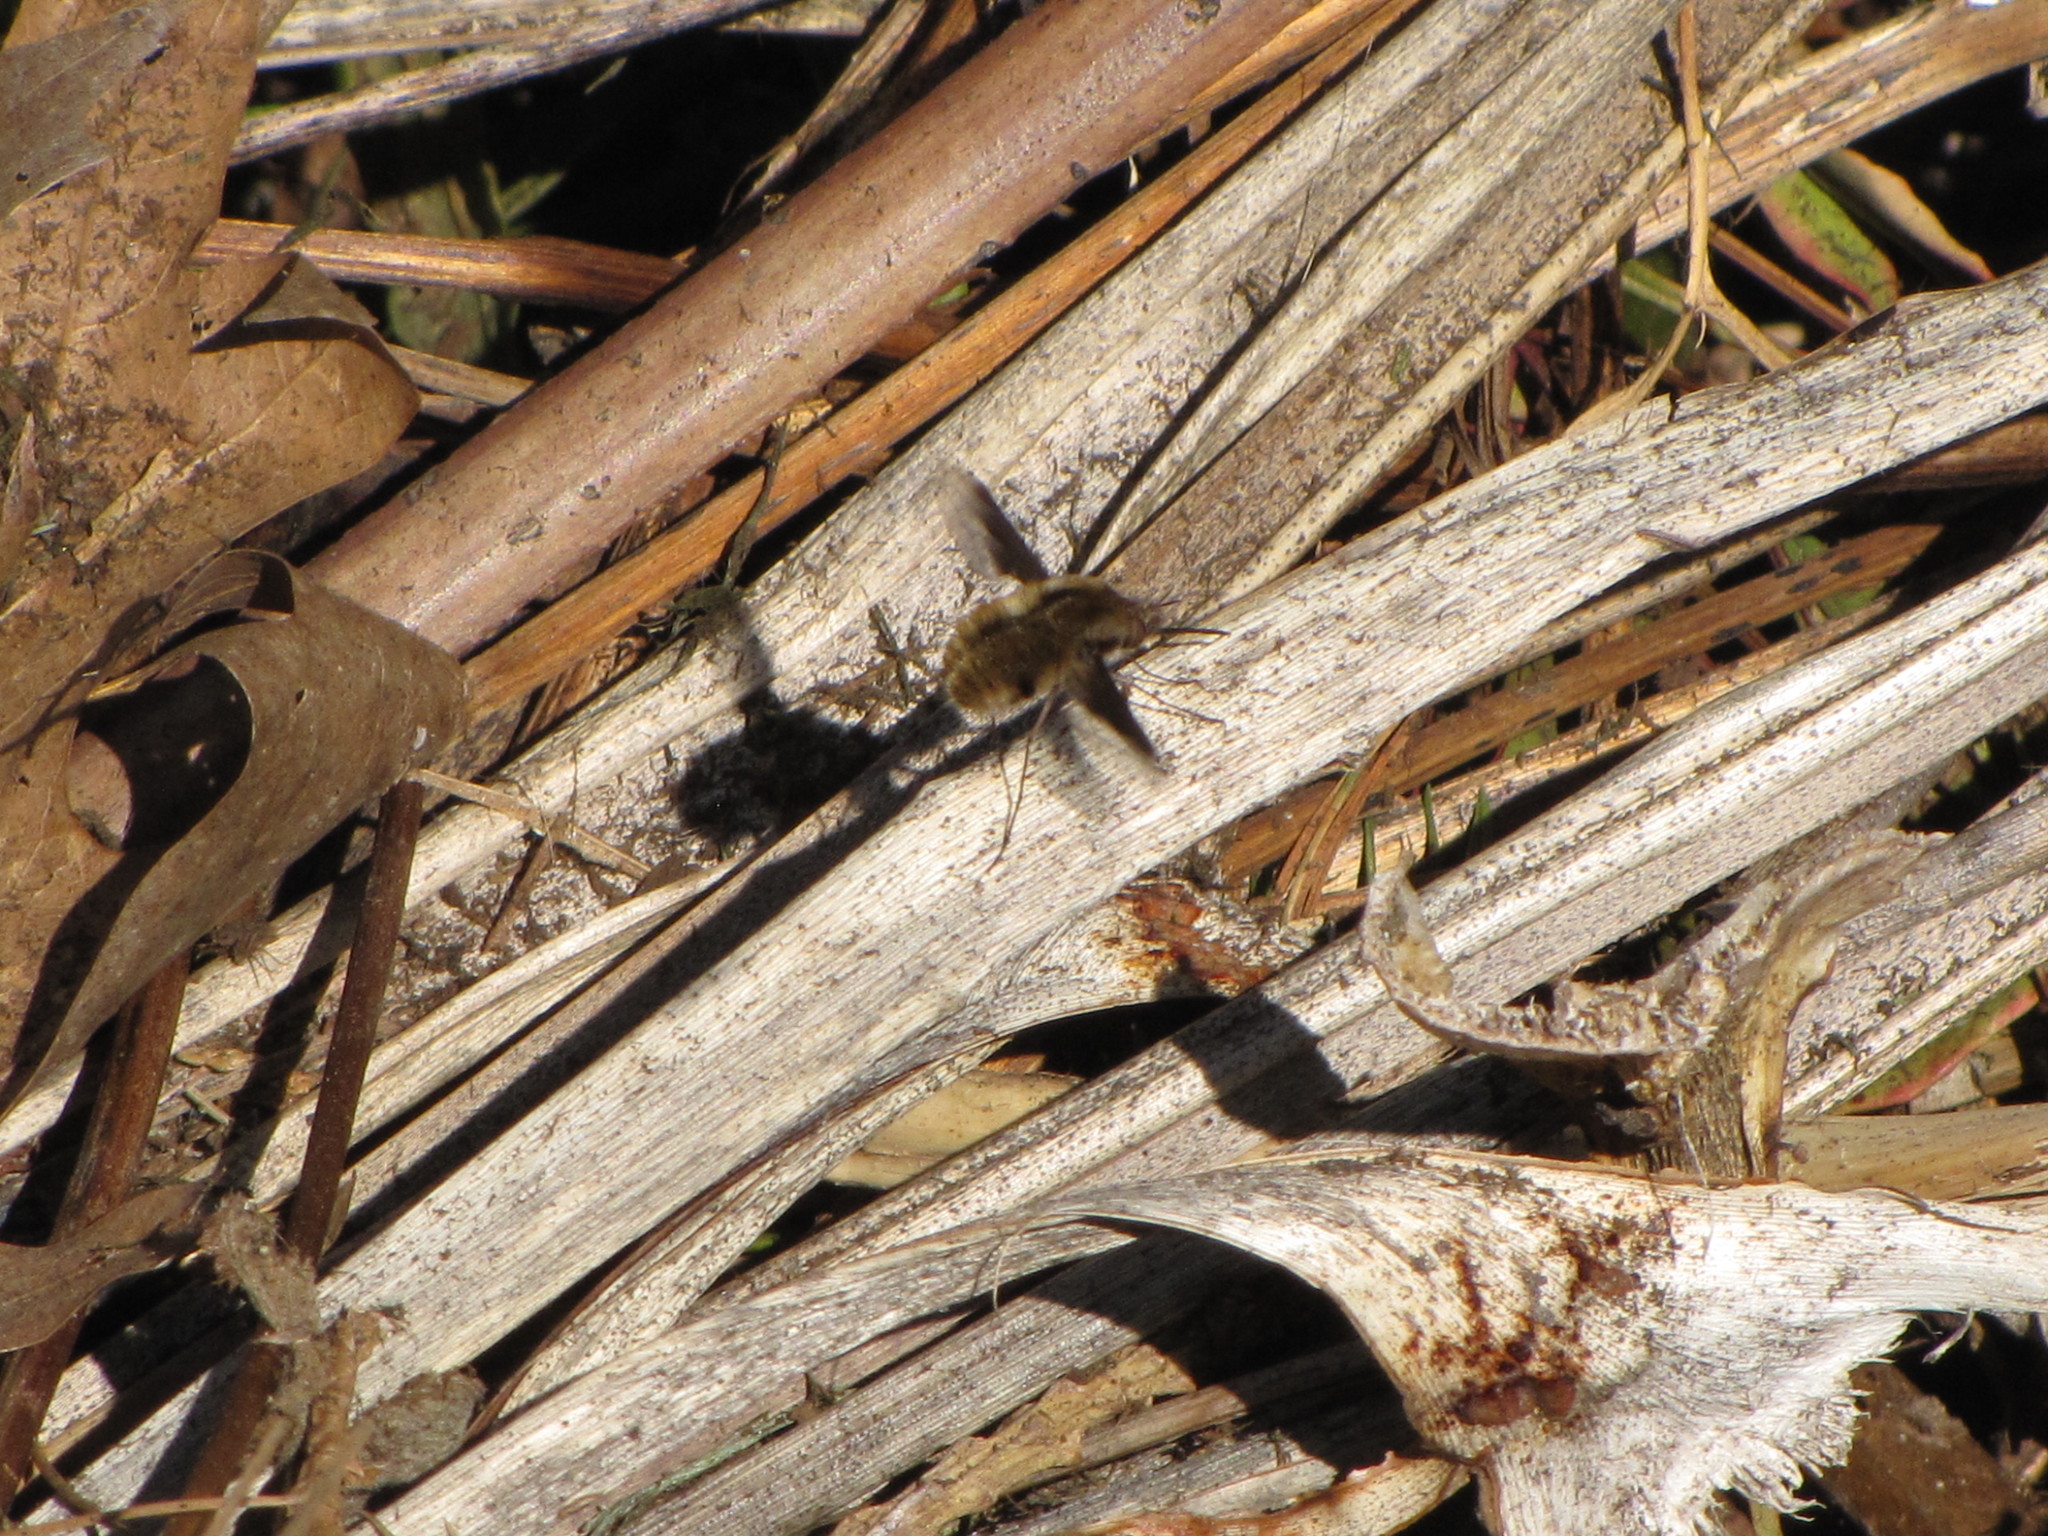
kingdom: Animalia
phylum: Arthropoda
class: Insecta
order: Diptera
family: Bombyliidae
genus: Bombylius
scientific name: Bombylius major
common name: Bee fly
